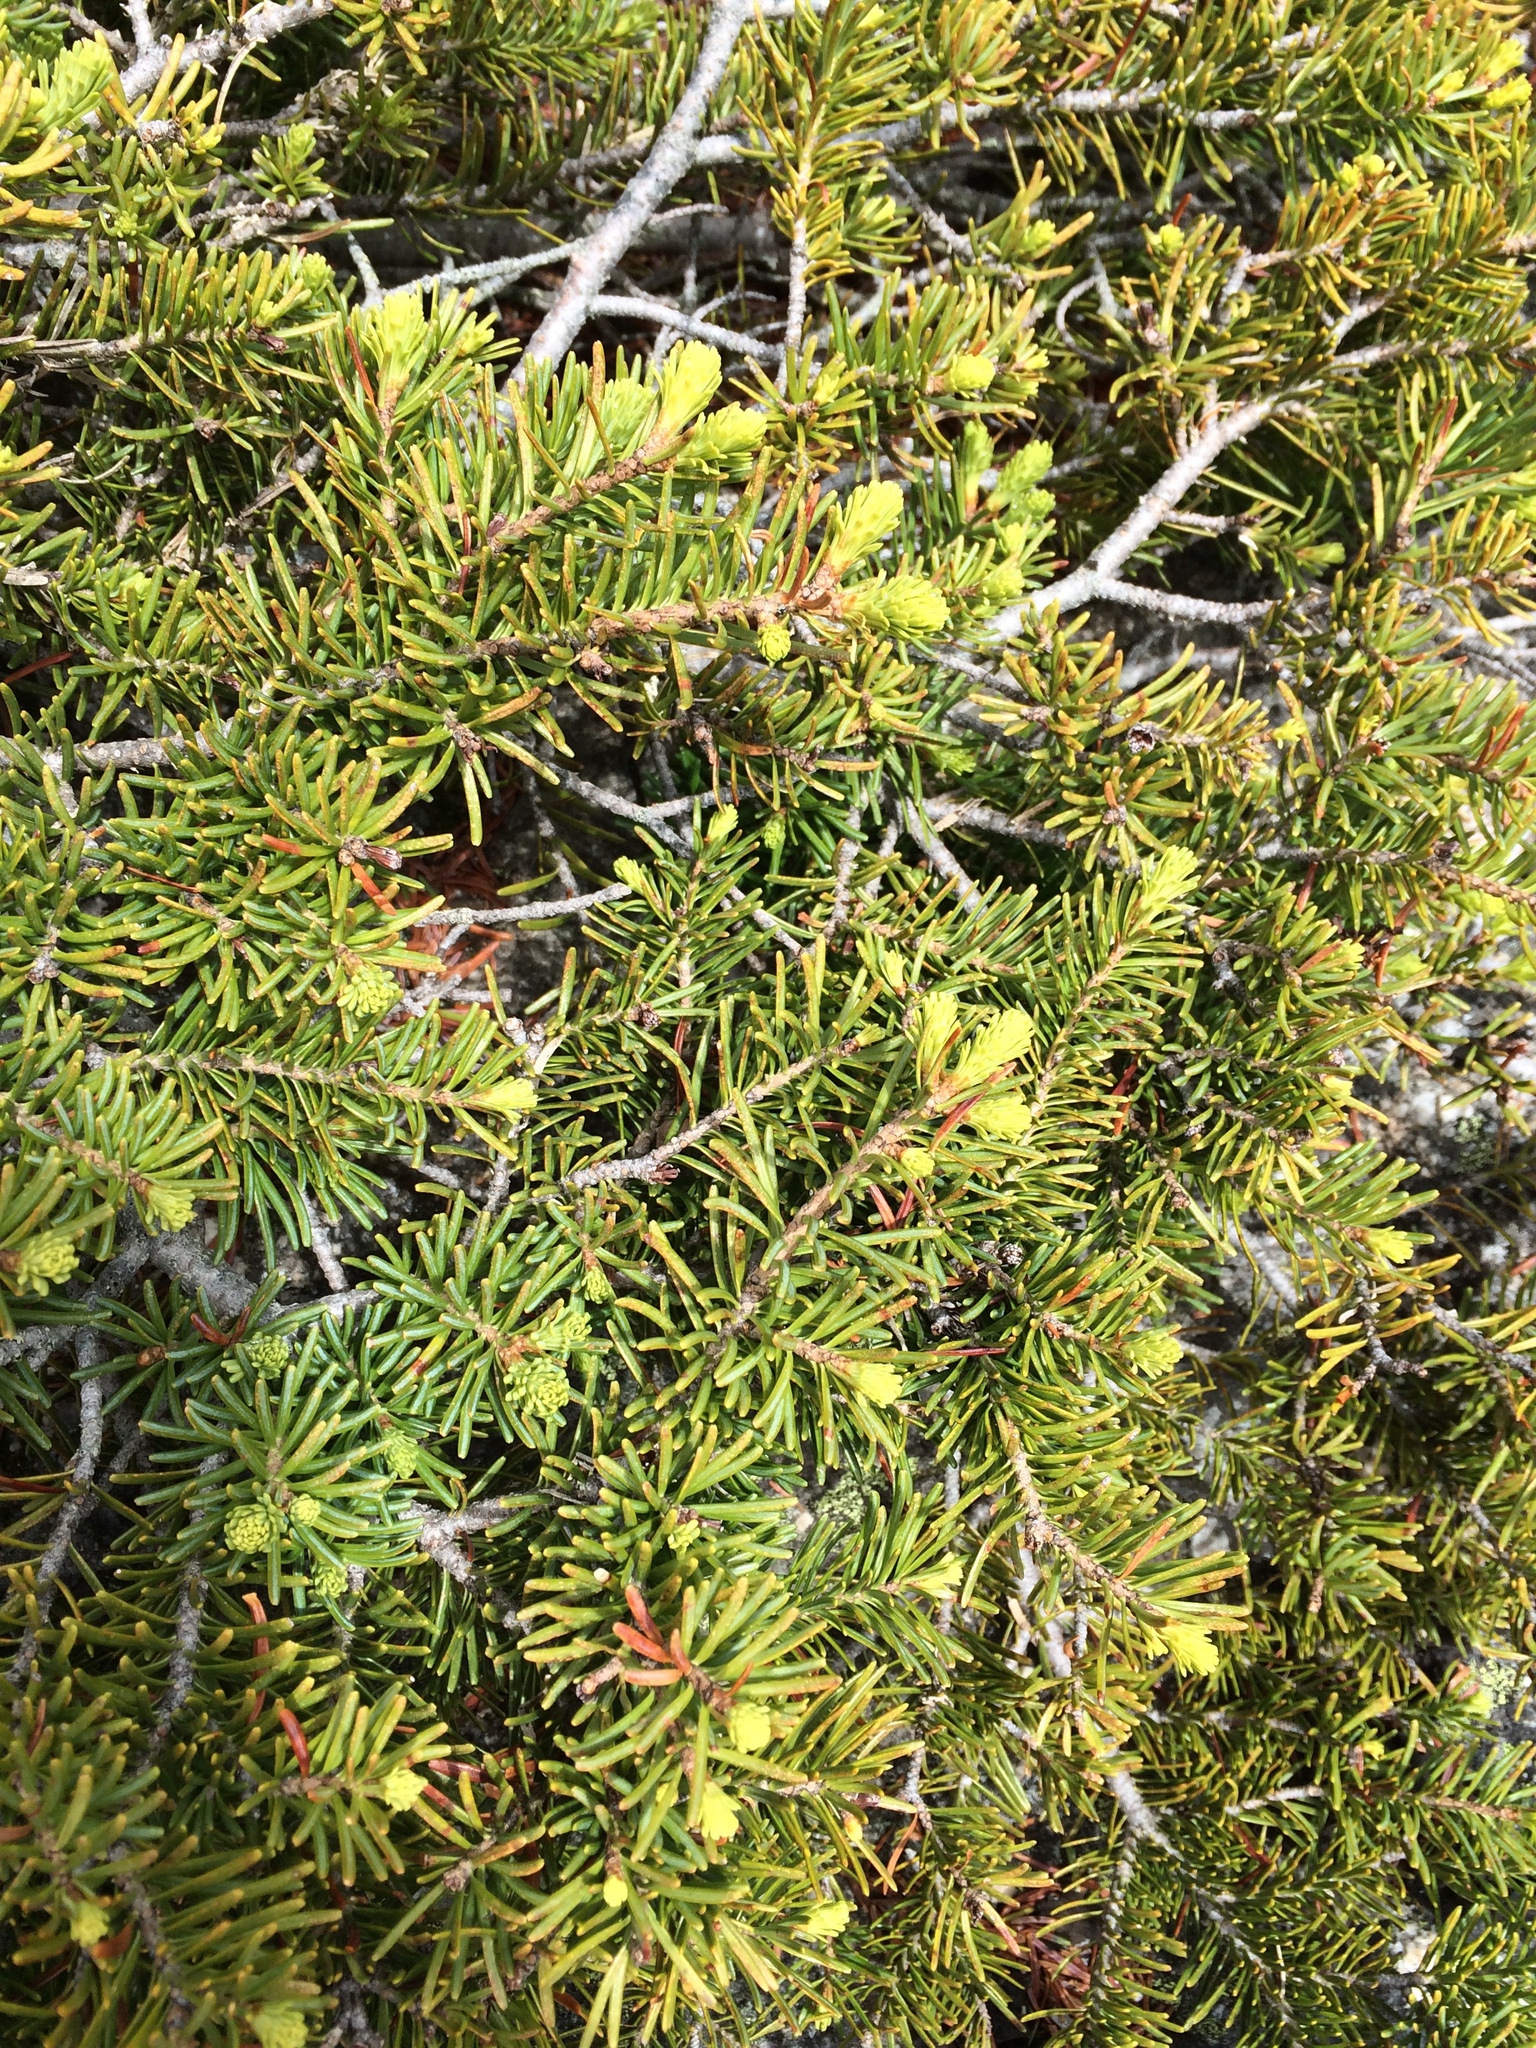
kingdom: Plantae
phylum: Tracheophyta
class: Pinopsida
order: Pinales
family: Pinaceae
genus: Tsuga
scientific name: Tsuga mertensiana
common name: Mountain hemlock
